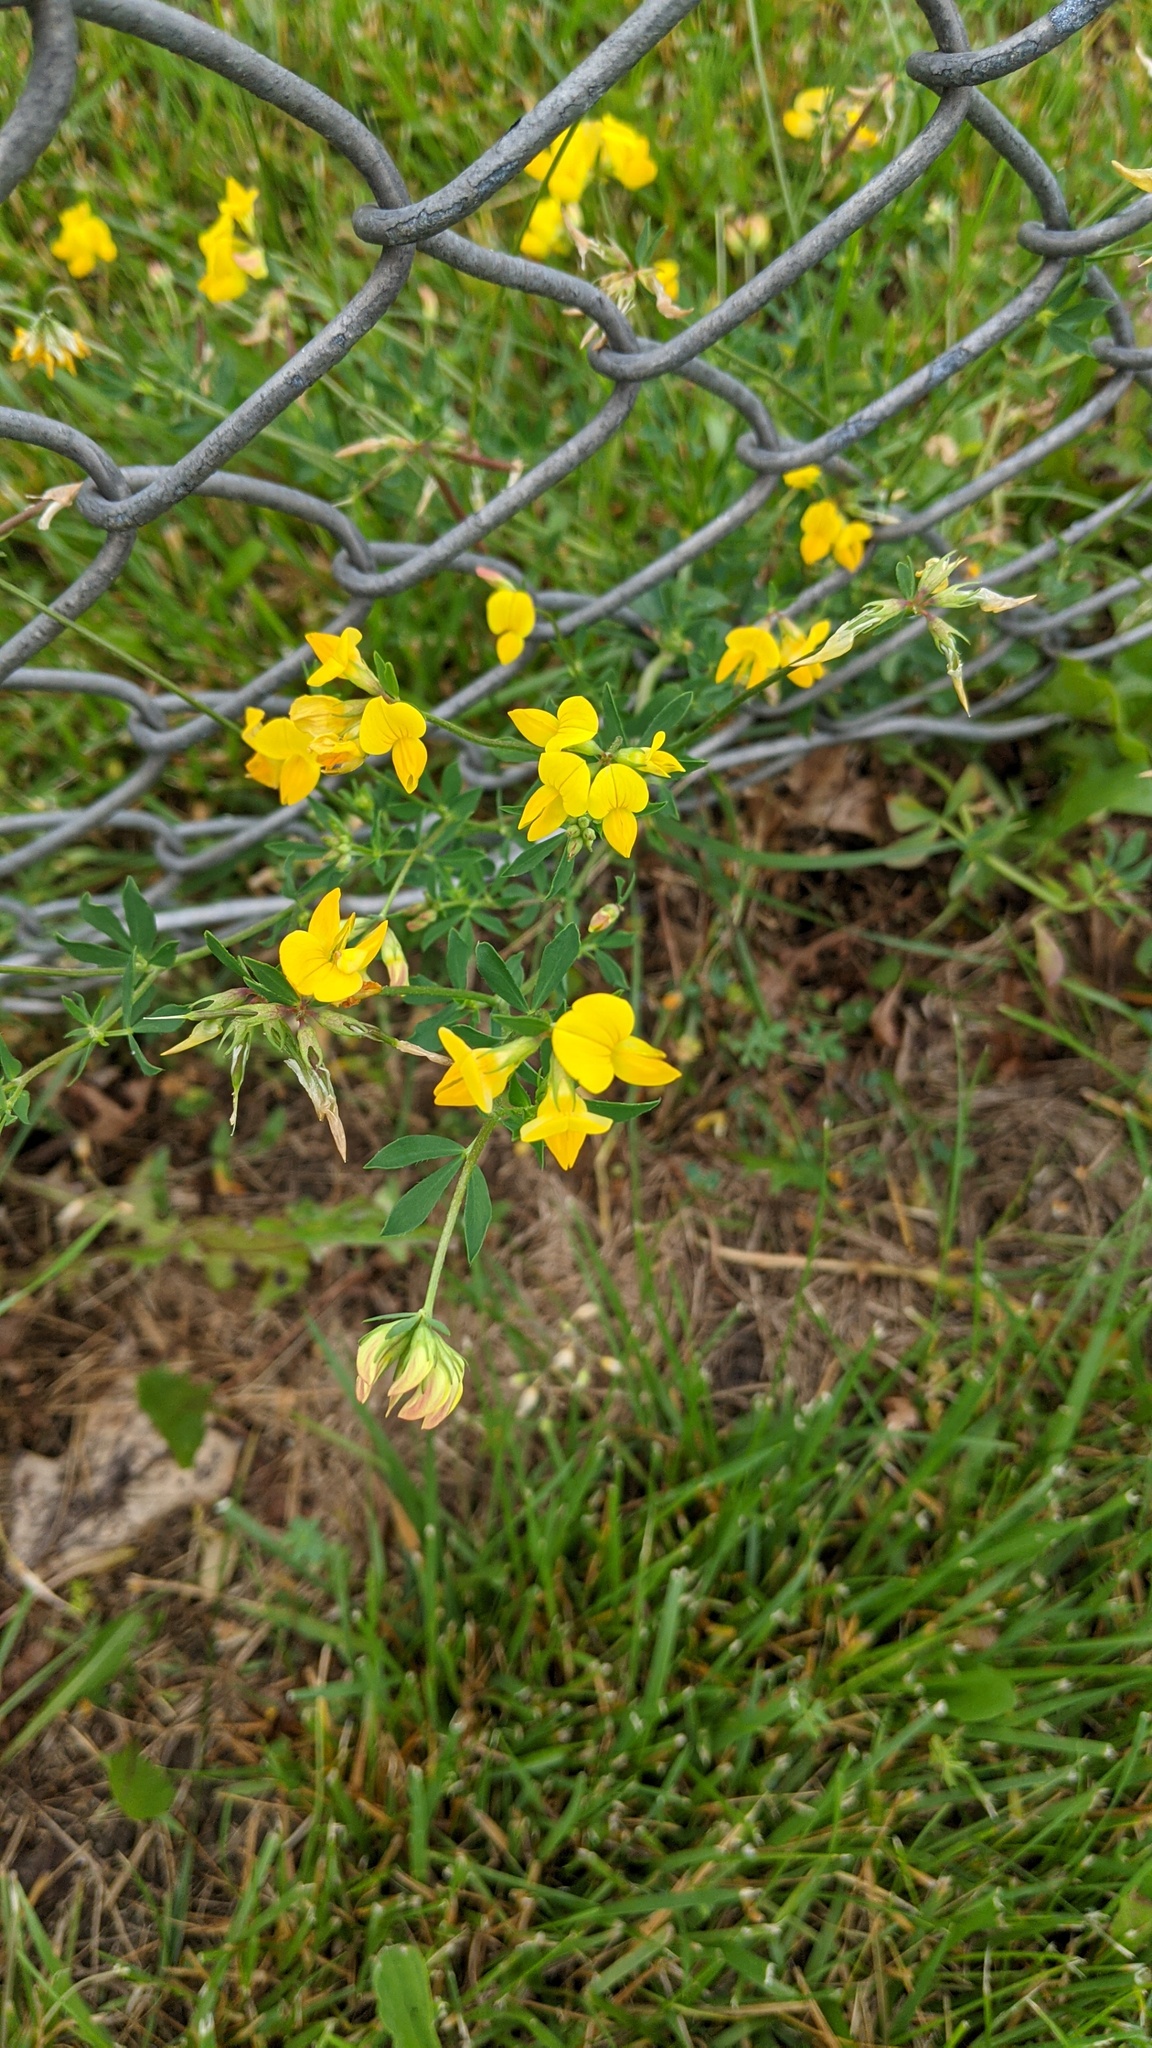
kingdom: Plantae
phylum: Tracheophyta
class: Magnoliopsida
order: Fabales
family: Fabaceae
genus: Lotus
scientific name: Lotus corniculatus
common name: Common bird's-foot-trefoil
